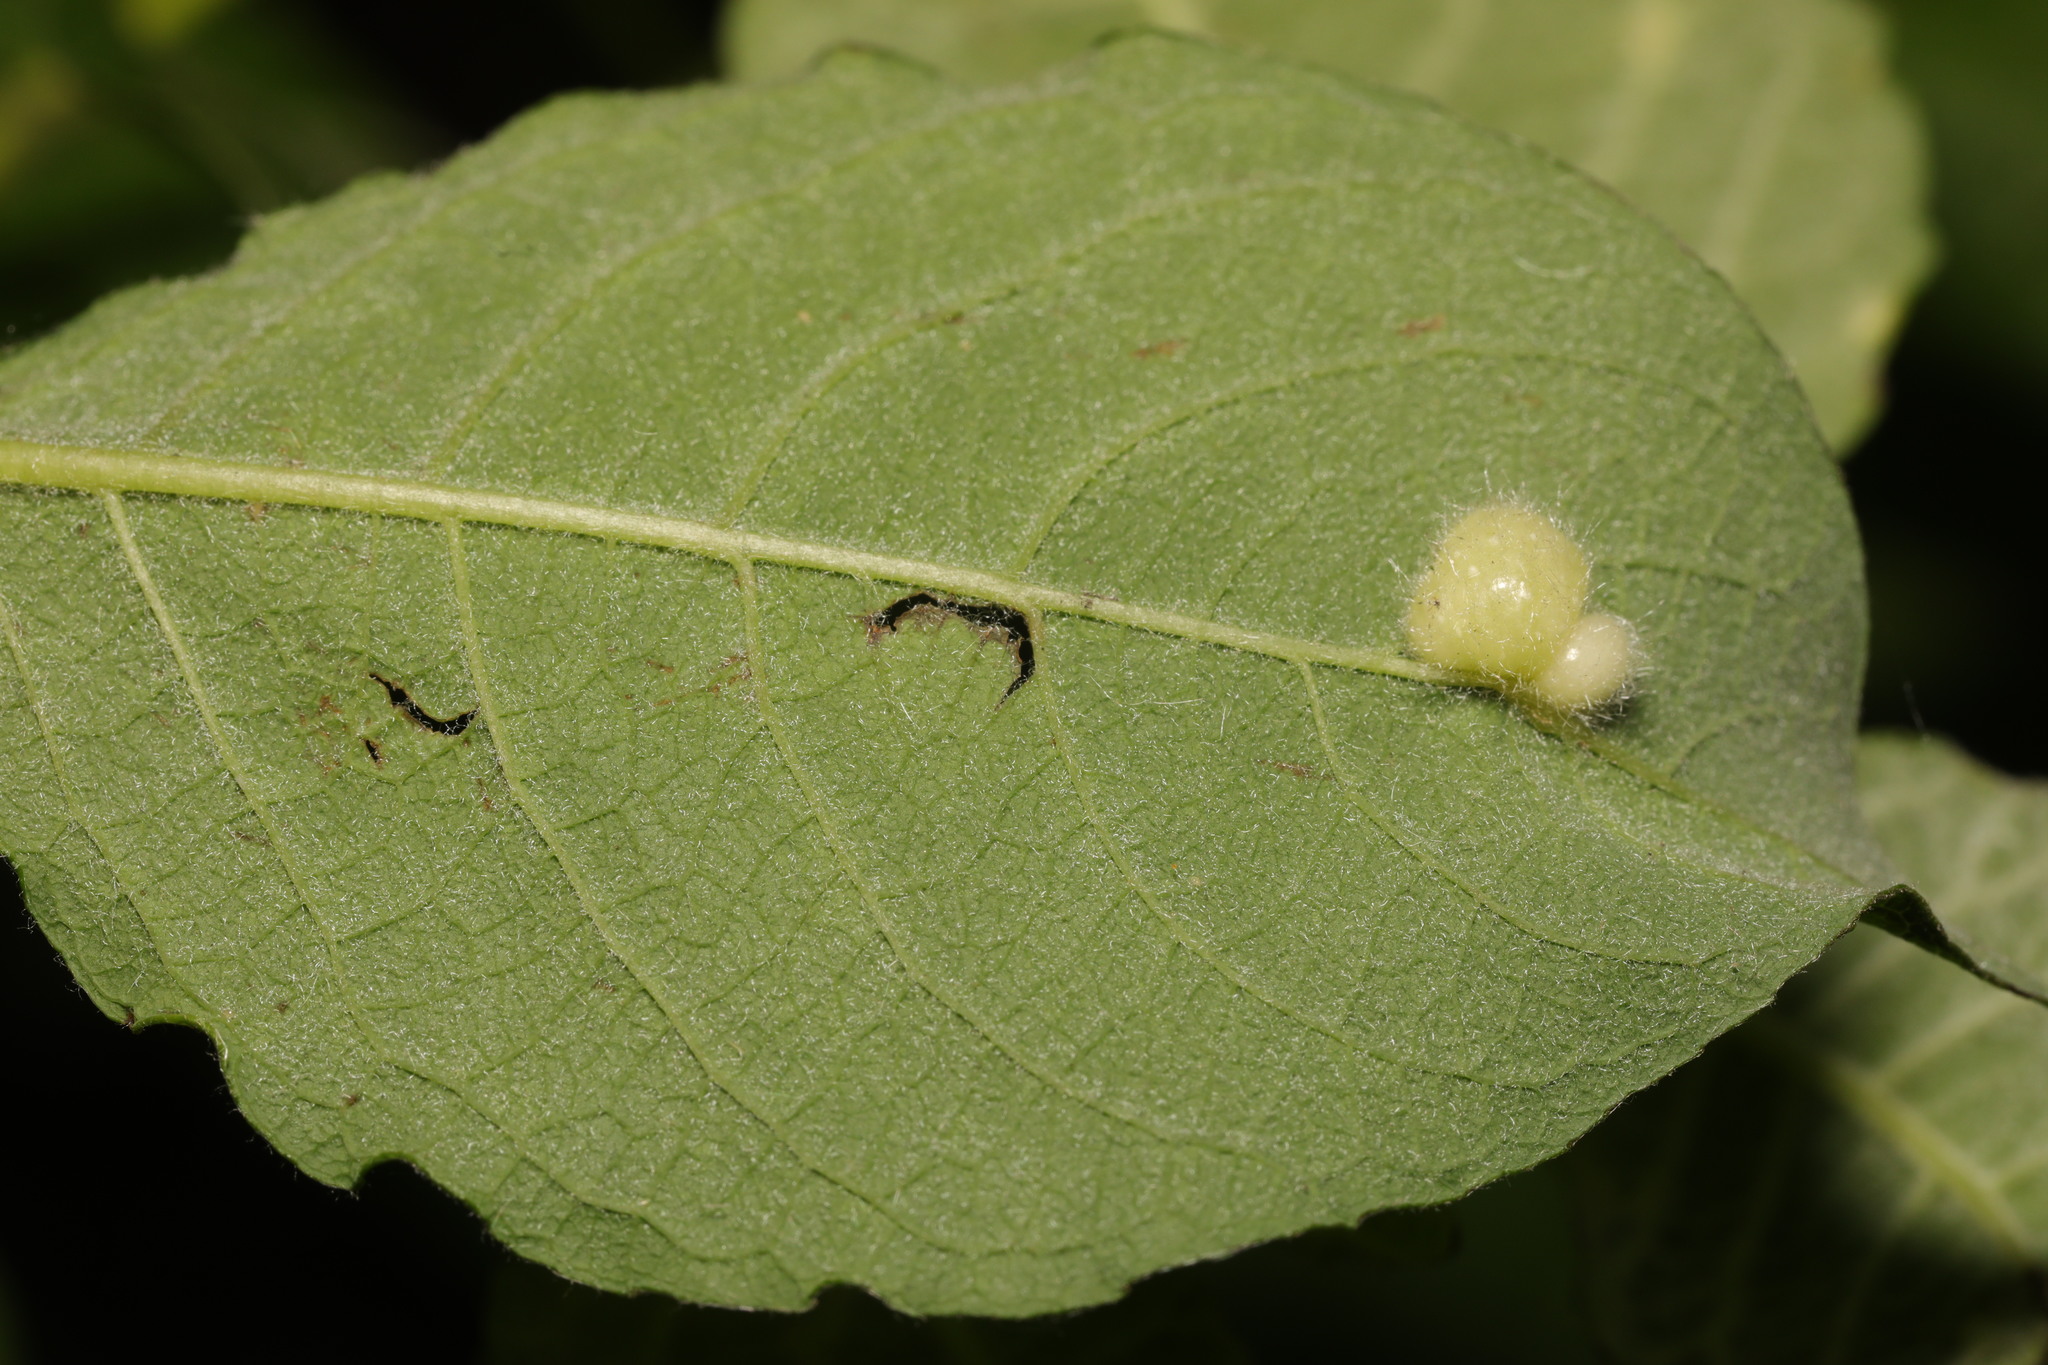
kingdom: Animalia
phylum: Arthropoda
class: Insecta
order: Hymenoptera
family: Tenthredinidae
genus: Pontania
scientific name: Pontania pedunculi
